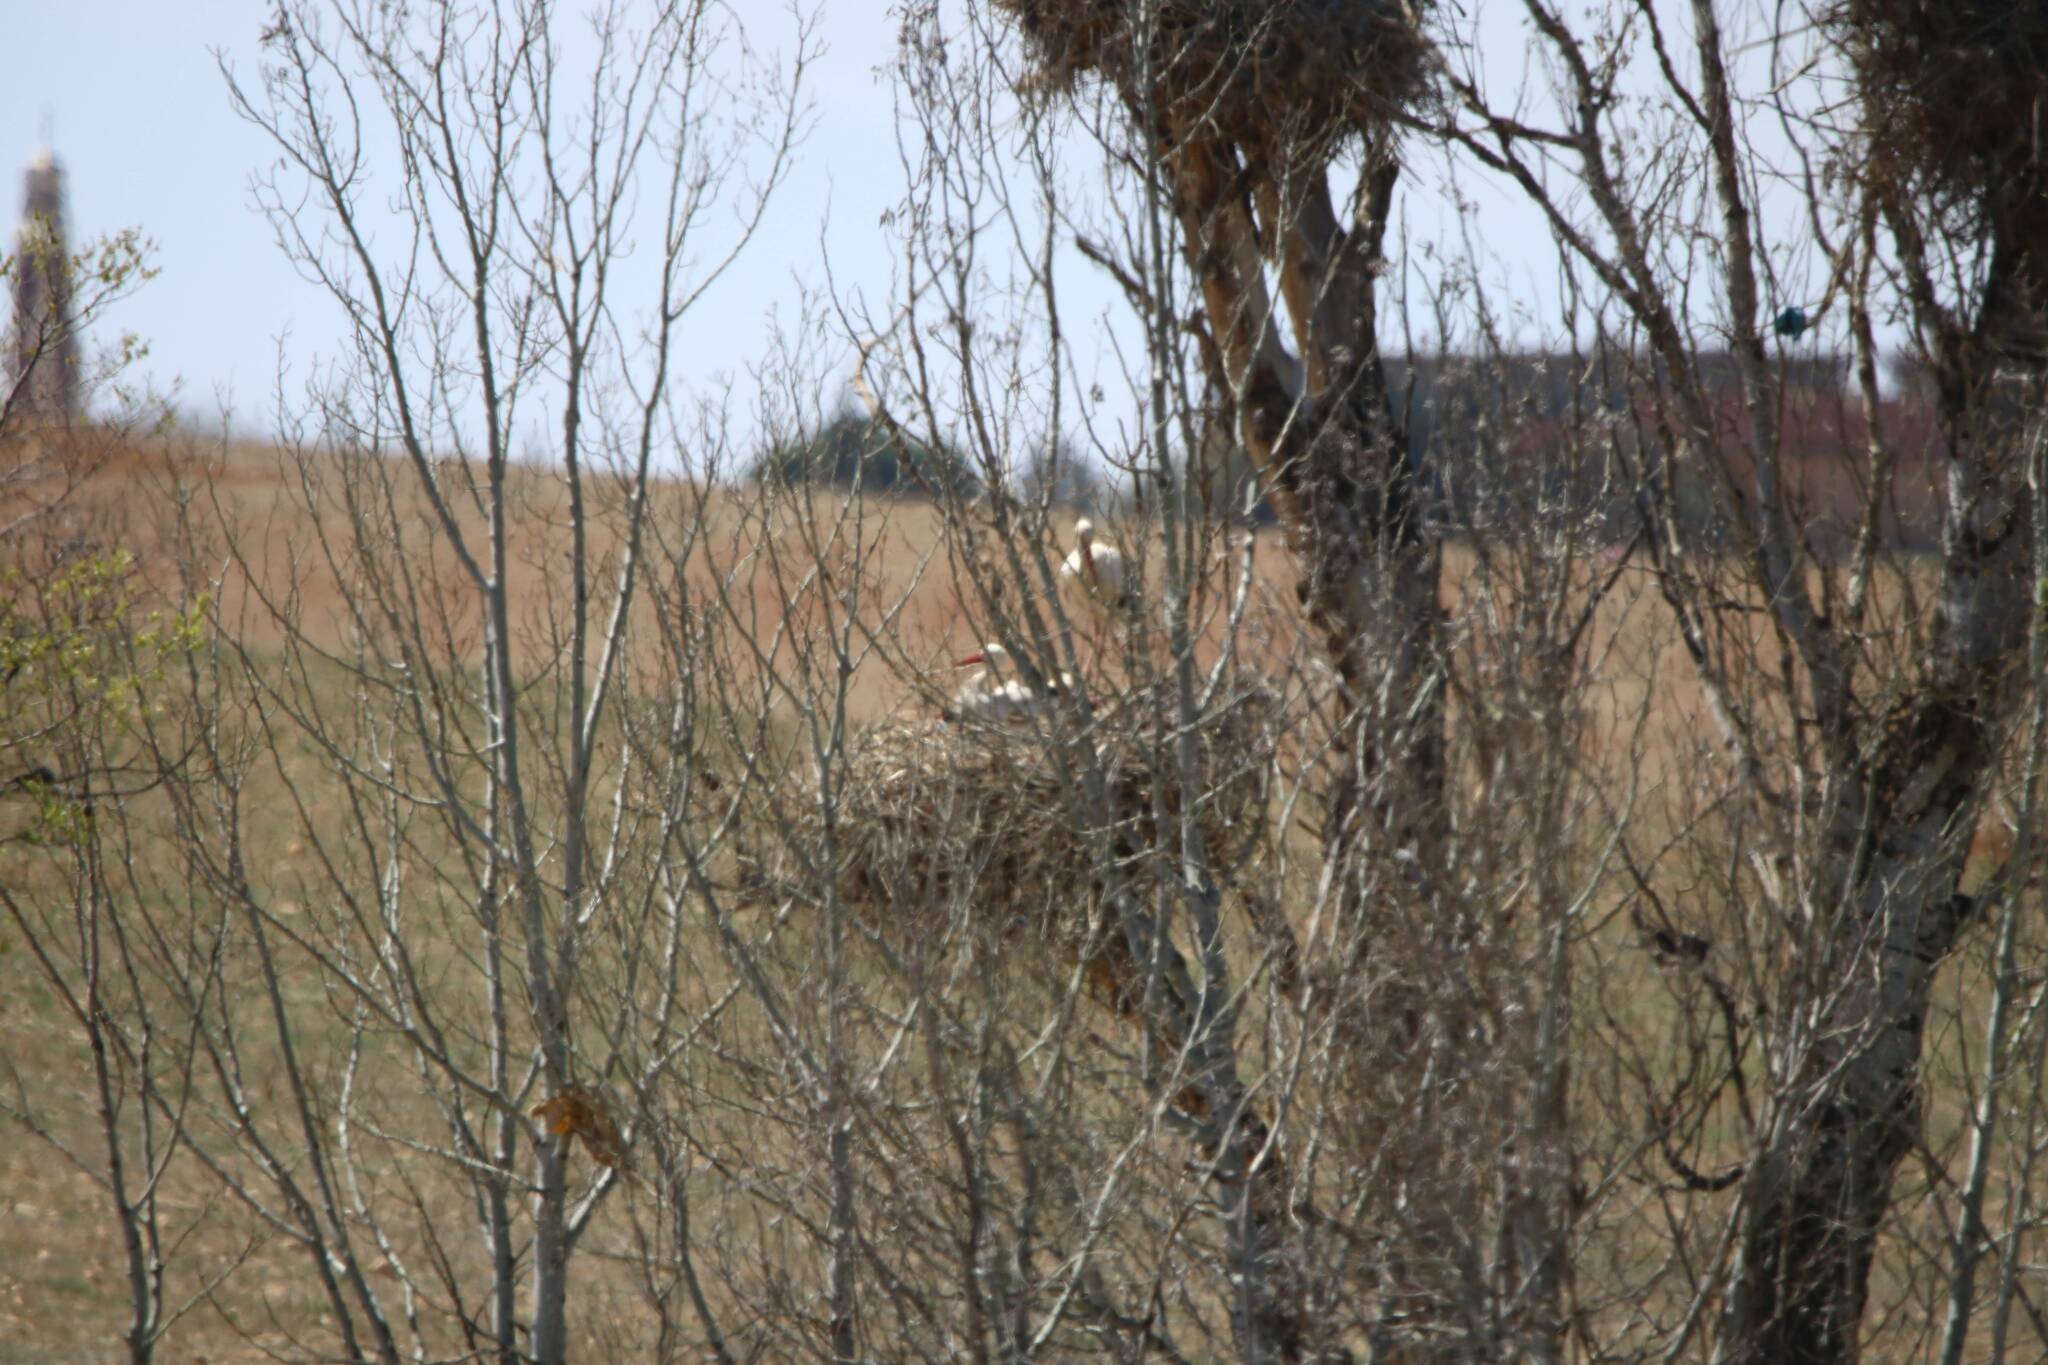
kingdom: Animalia
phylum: Chordata
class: Aves
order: Ciconiiformes
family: Ciconiidae
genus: Ciconia
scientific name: Ciconia ciconia
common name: White stork
